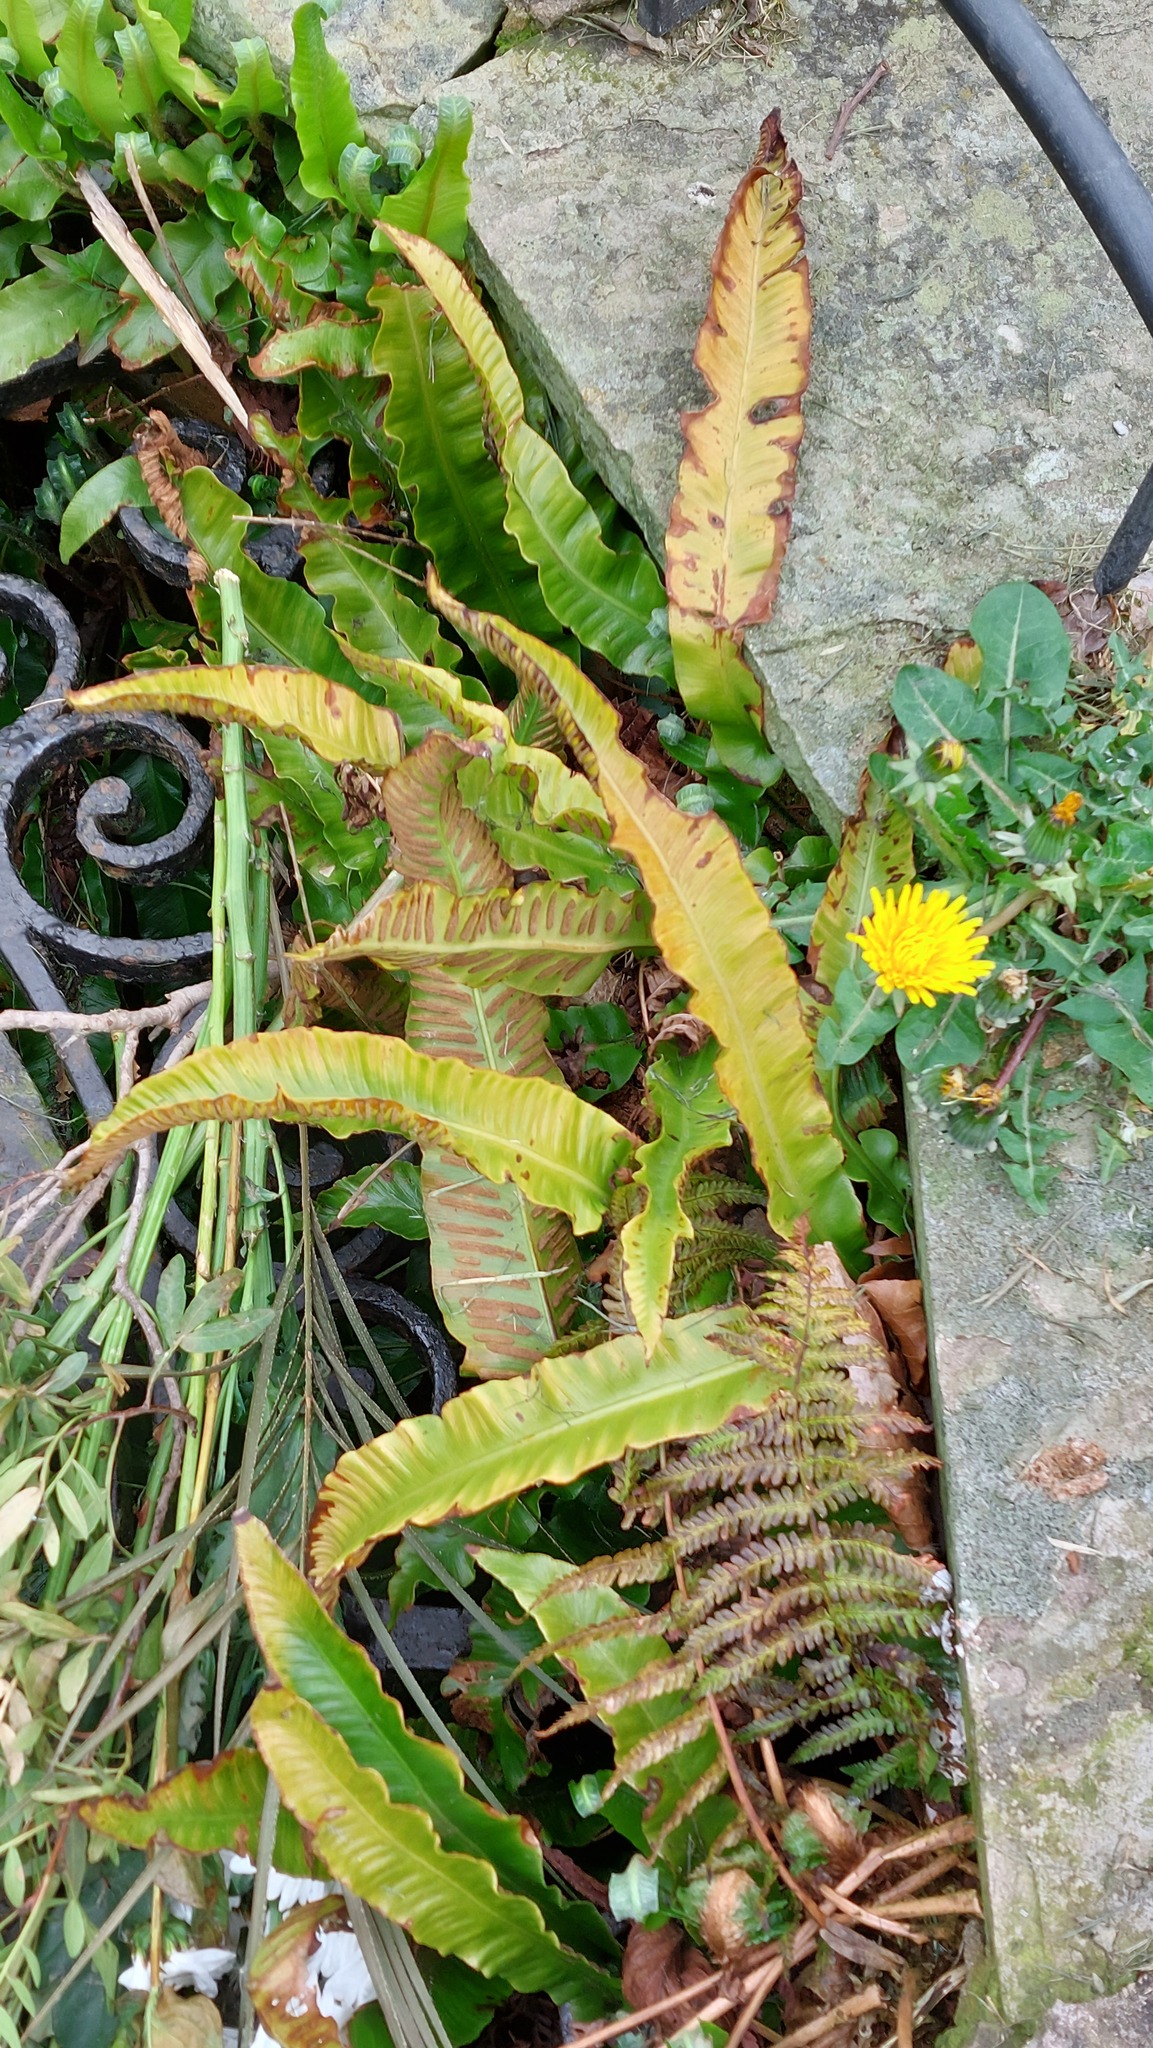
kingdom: Plantae
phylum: Tracheophyta
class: Polypodiopsida
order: Polypodiales
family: Aspleniaceae
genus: Asplenium
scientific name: Asplenium scolopendrium
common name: Hart's-tongue fern
